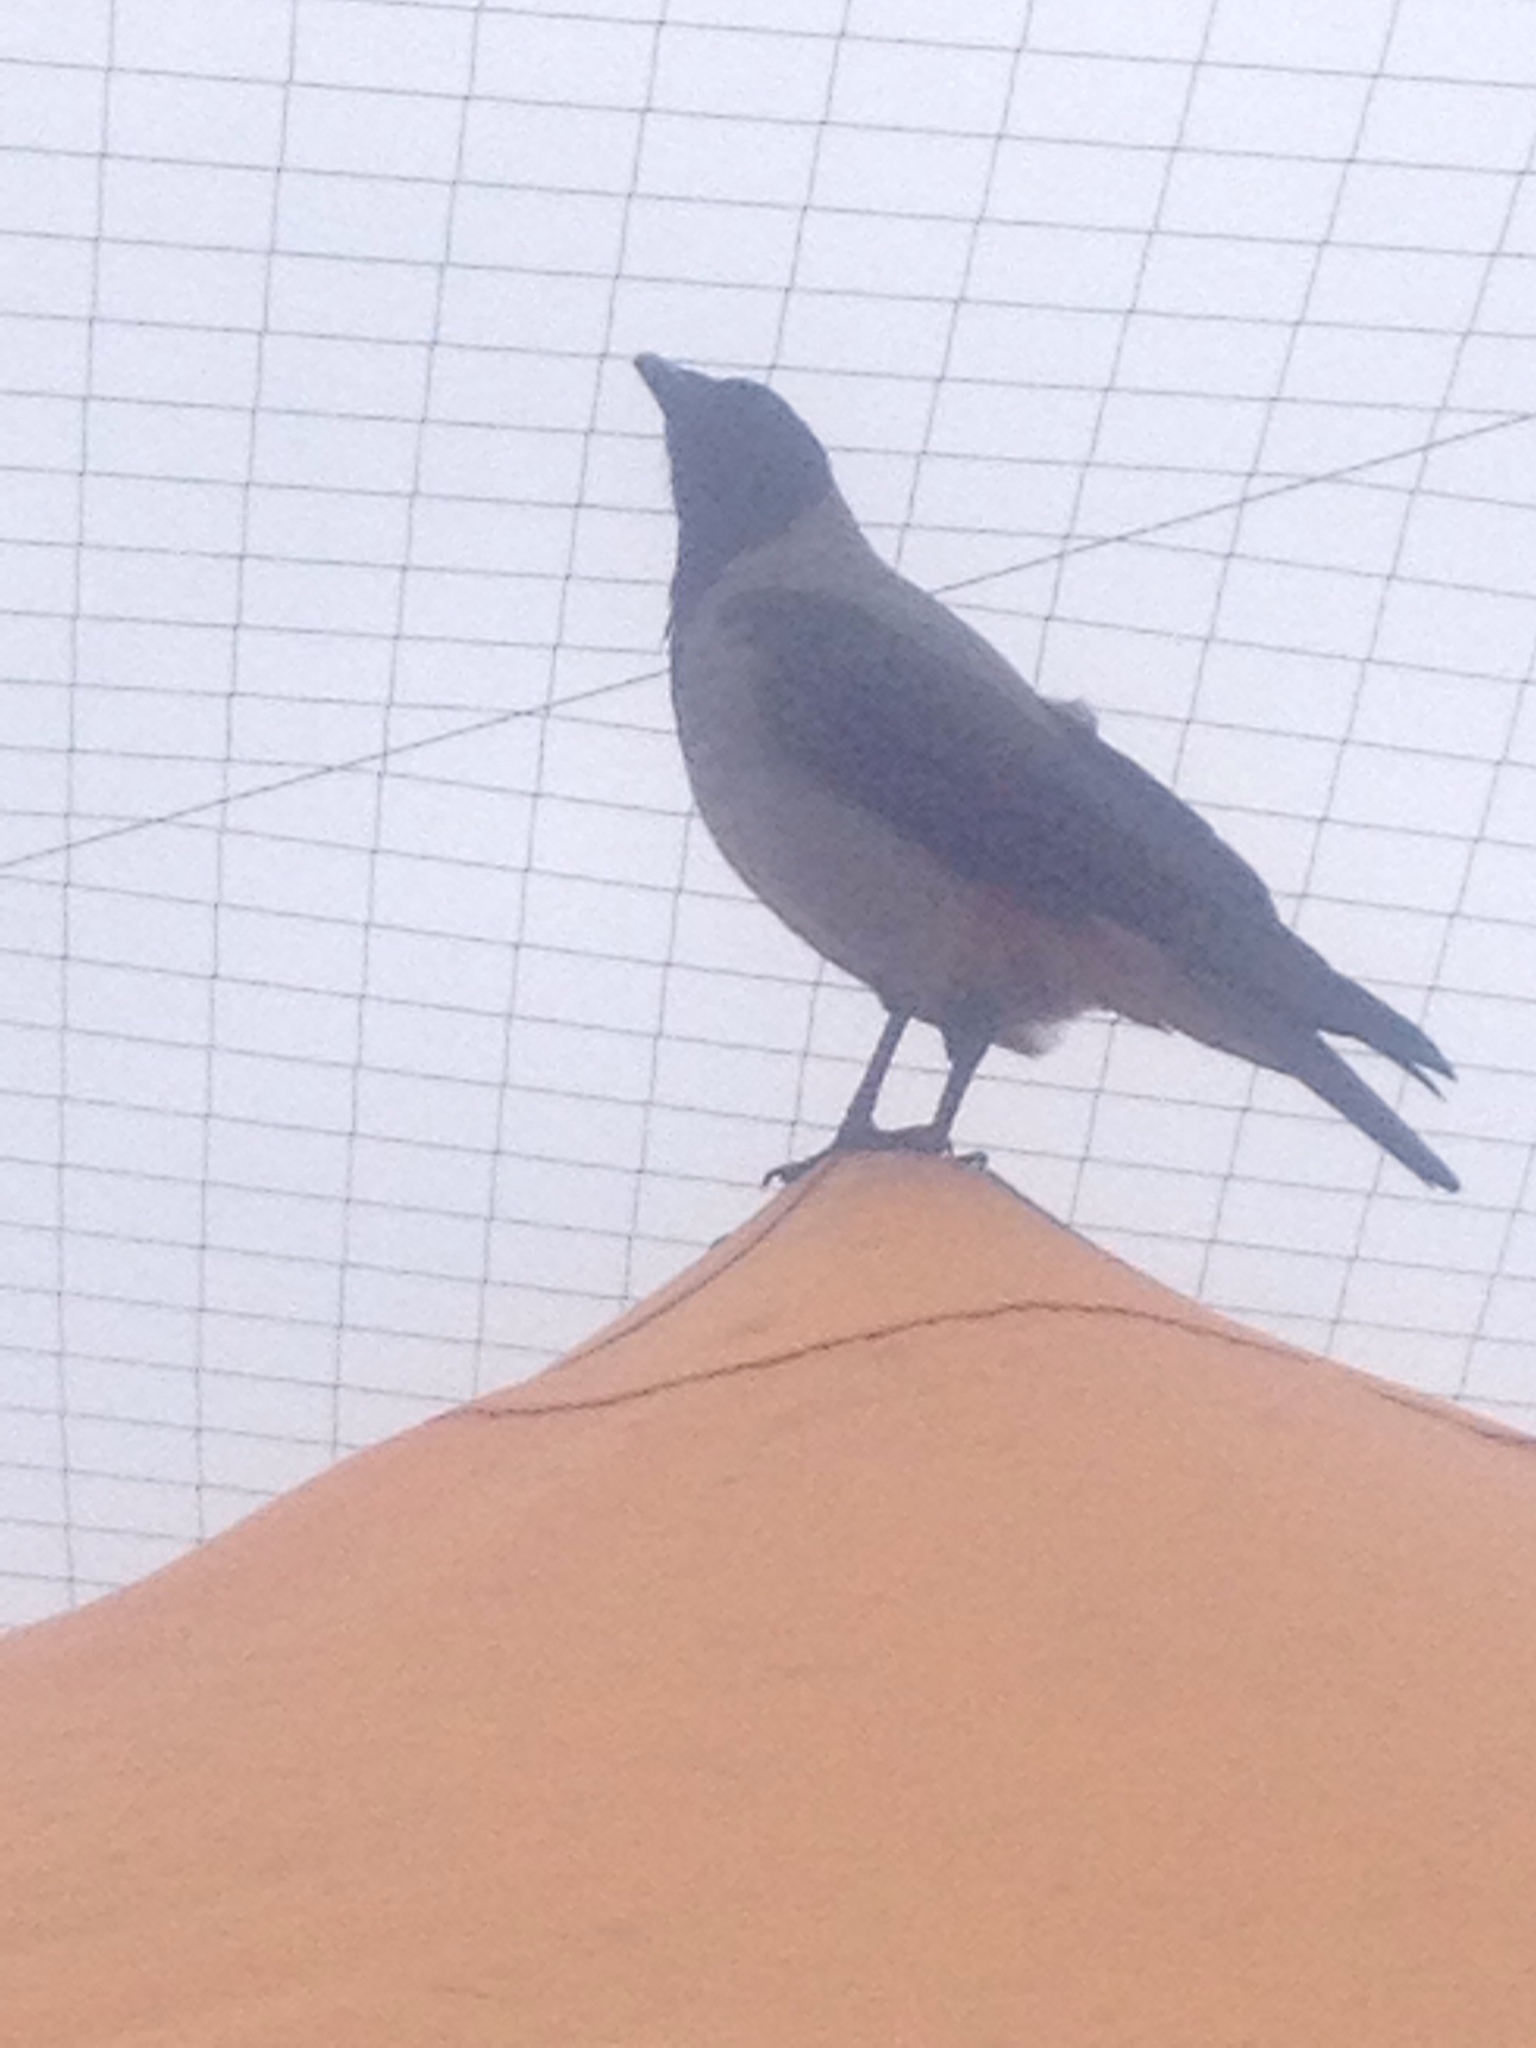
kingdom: Animalia
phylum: Chordata
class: Aves
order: Passeriformes
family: Corvidae
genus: Corvus
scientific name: Corvus cornix
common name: Hooded crow
